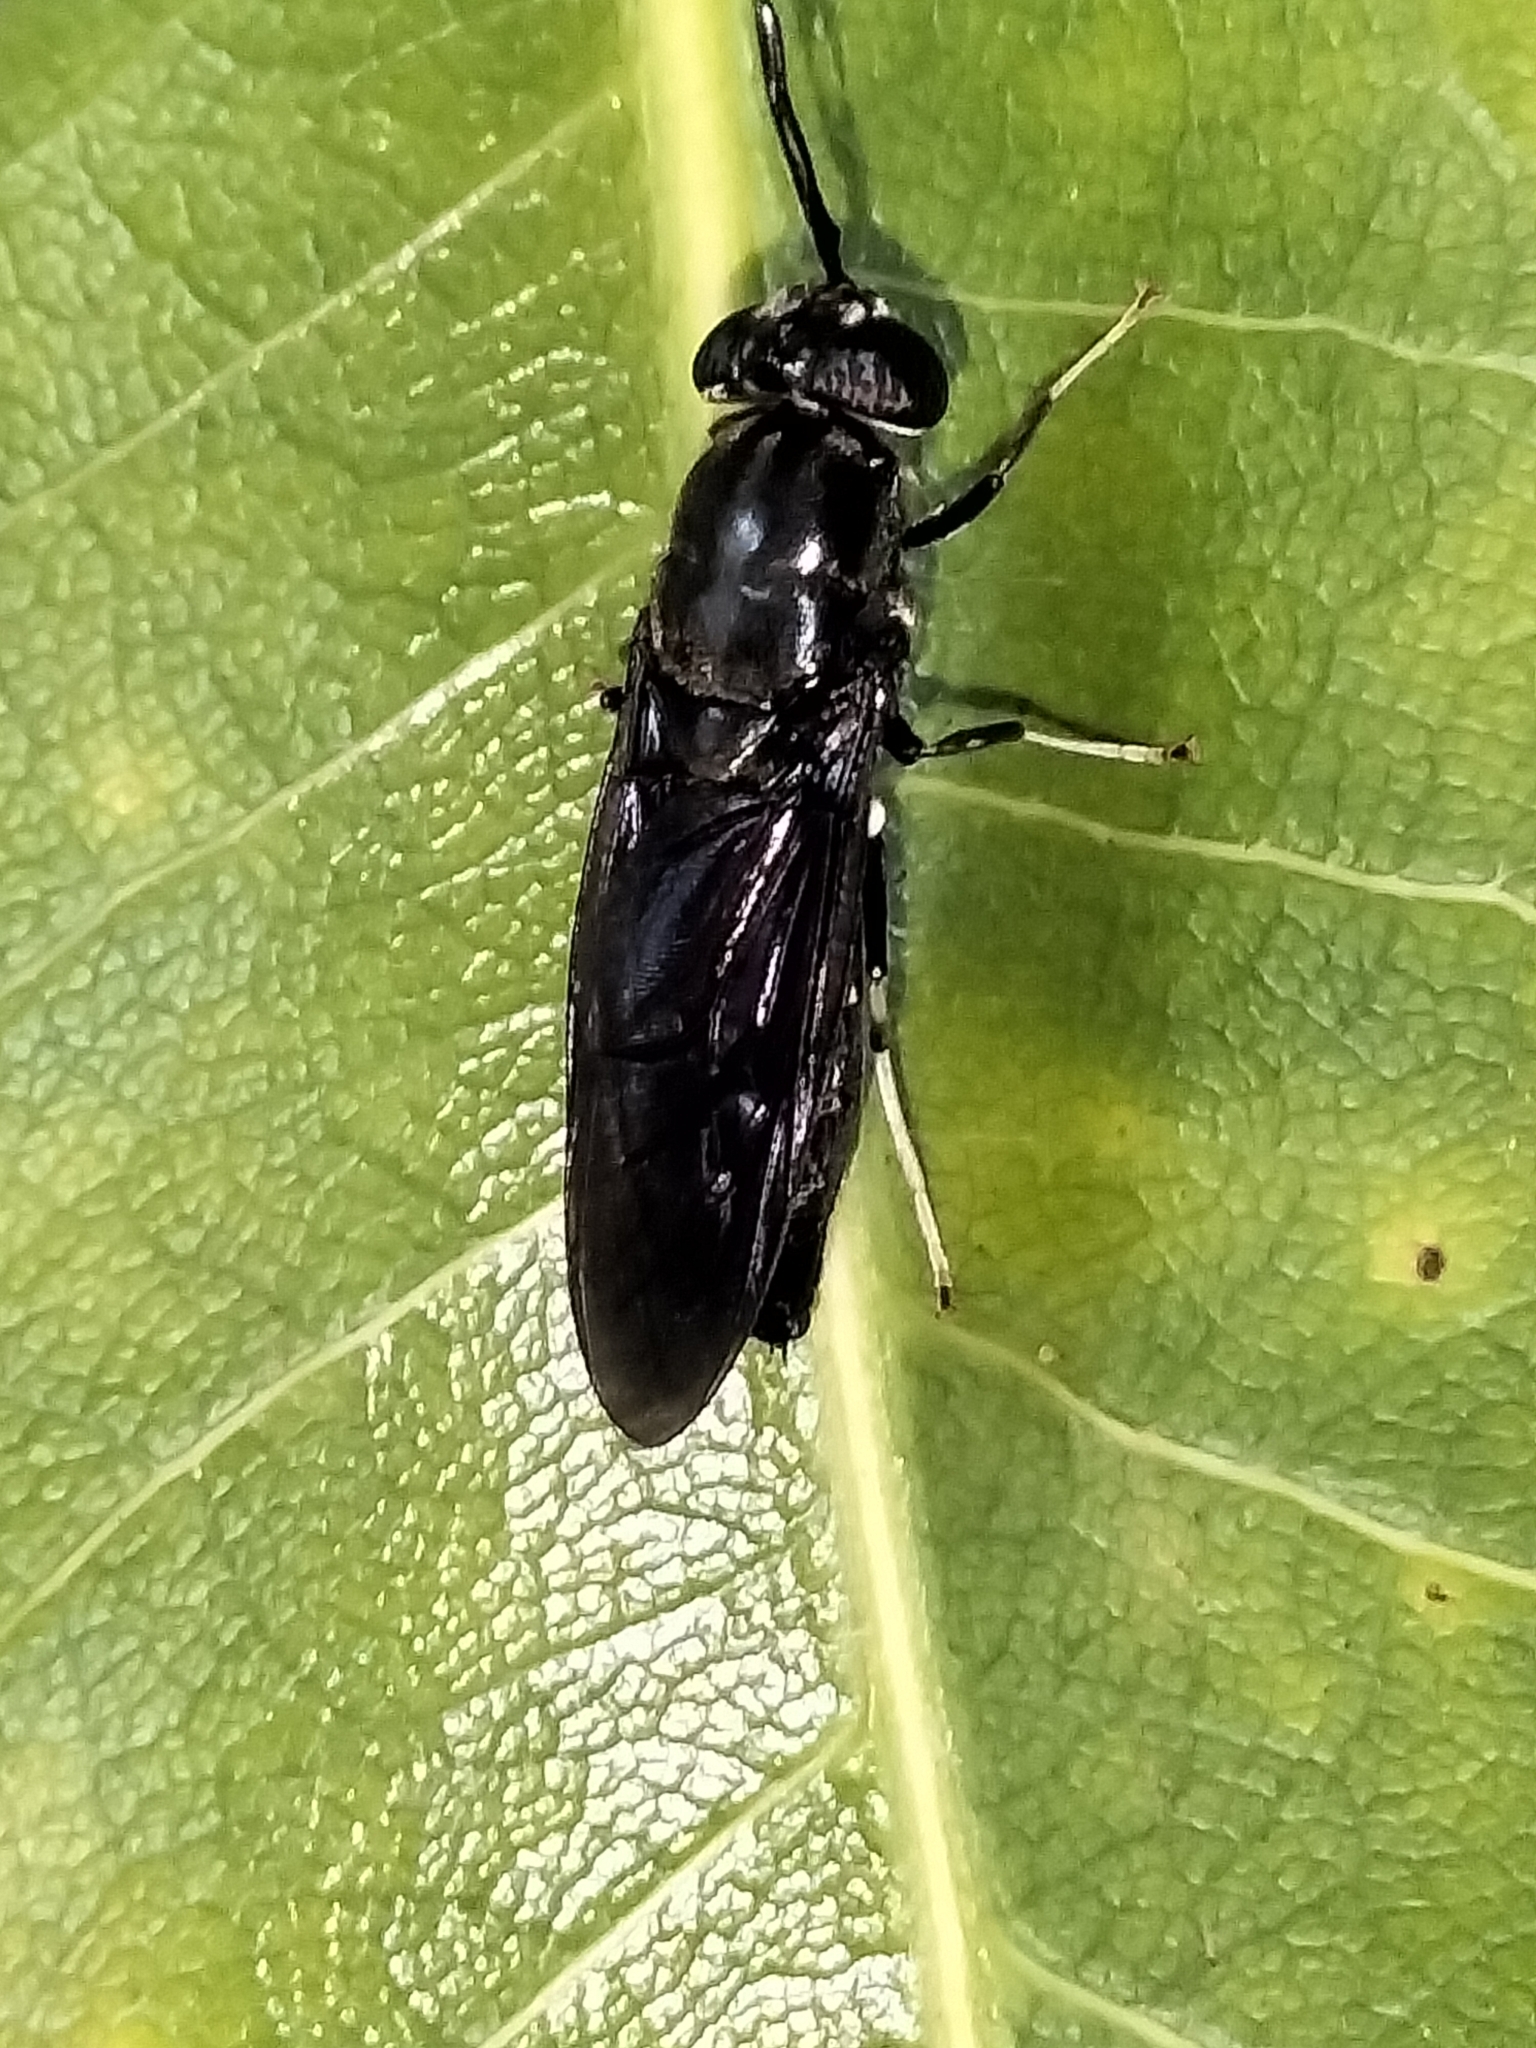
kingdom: Animalia
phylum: Arthropoda
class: Insecta
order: Diptera
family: Stratiomyidae
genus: Hermetia
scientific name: Hermetia illucens
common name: Black soldier fly
